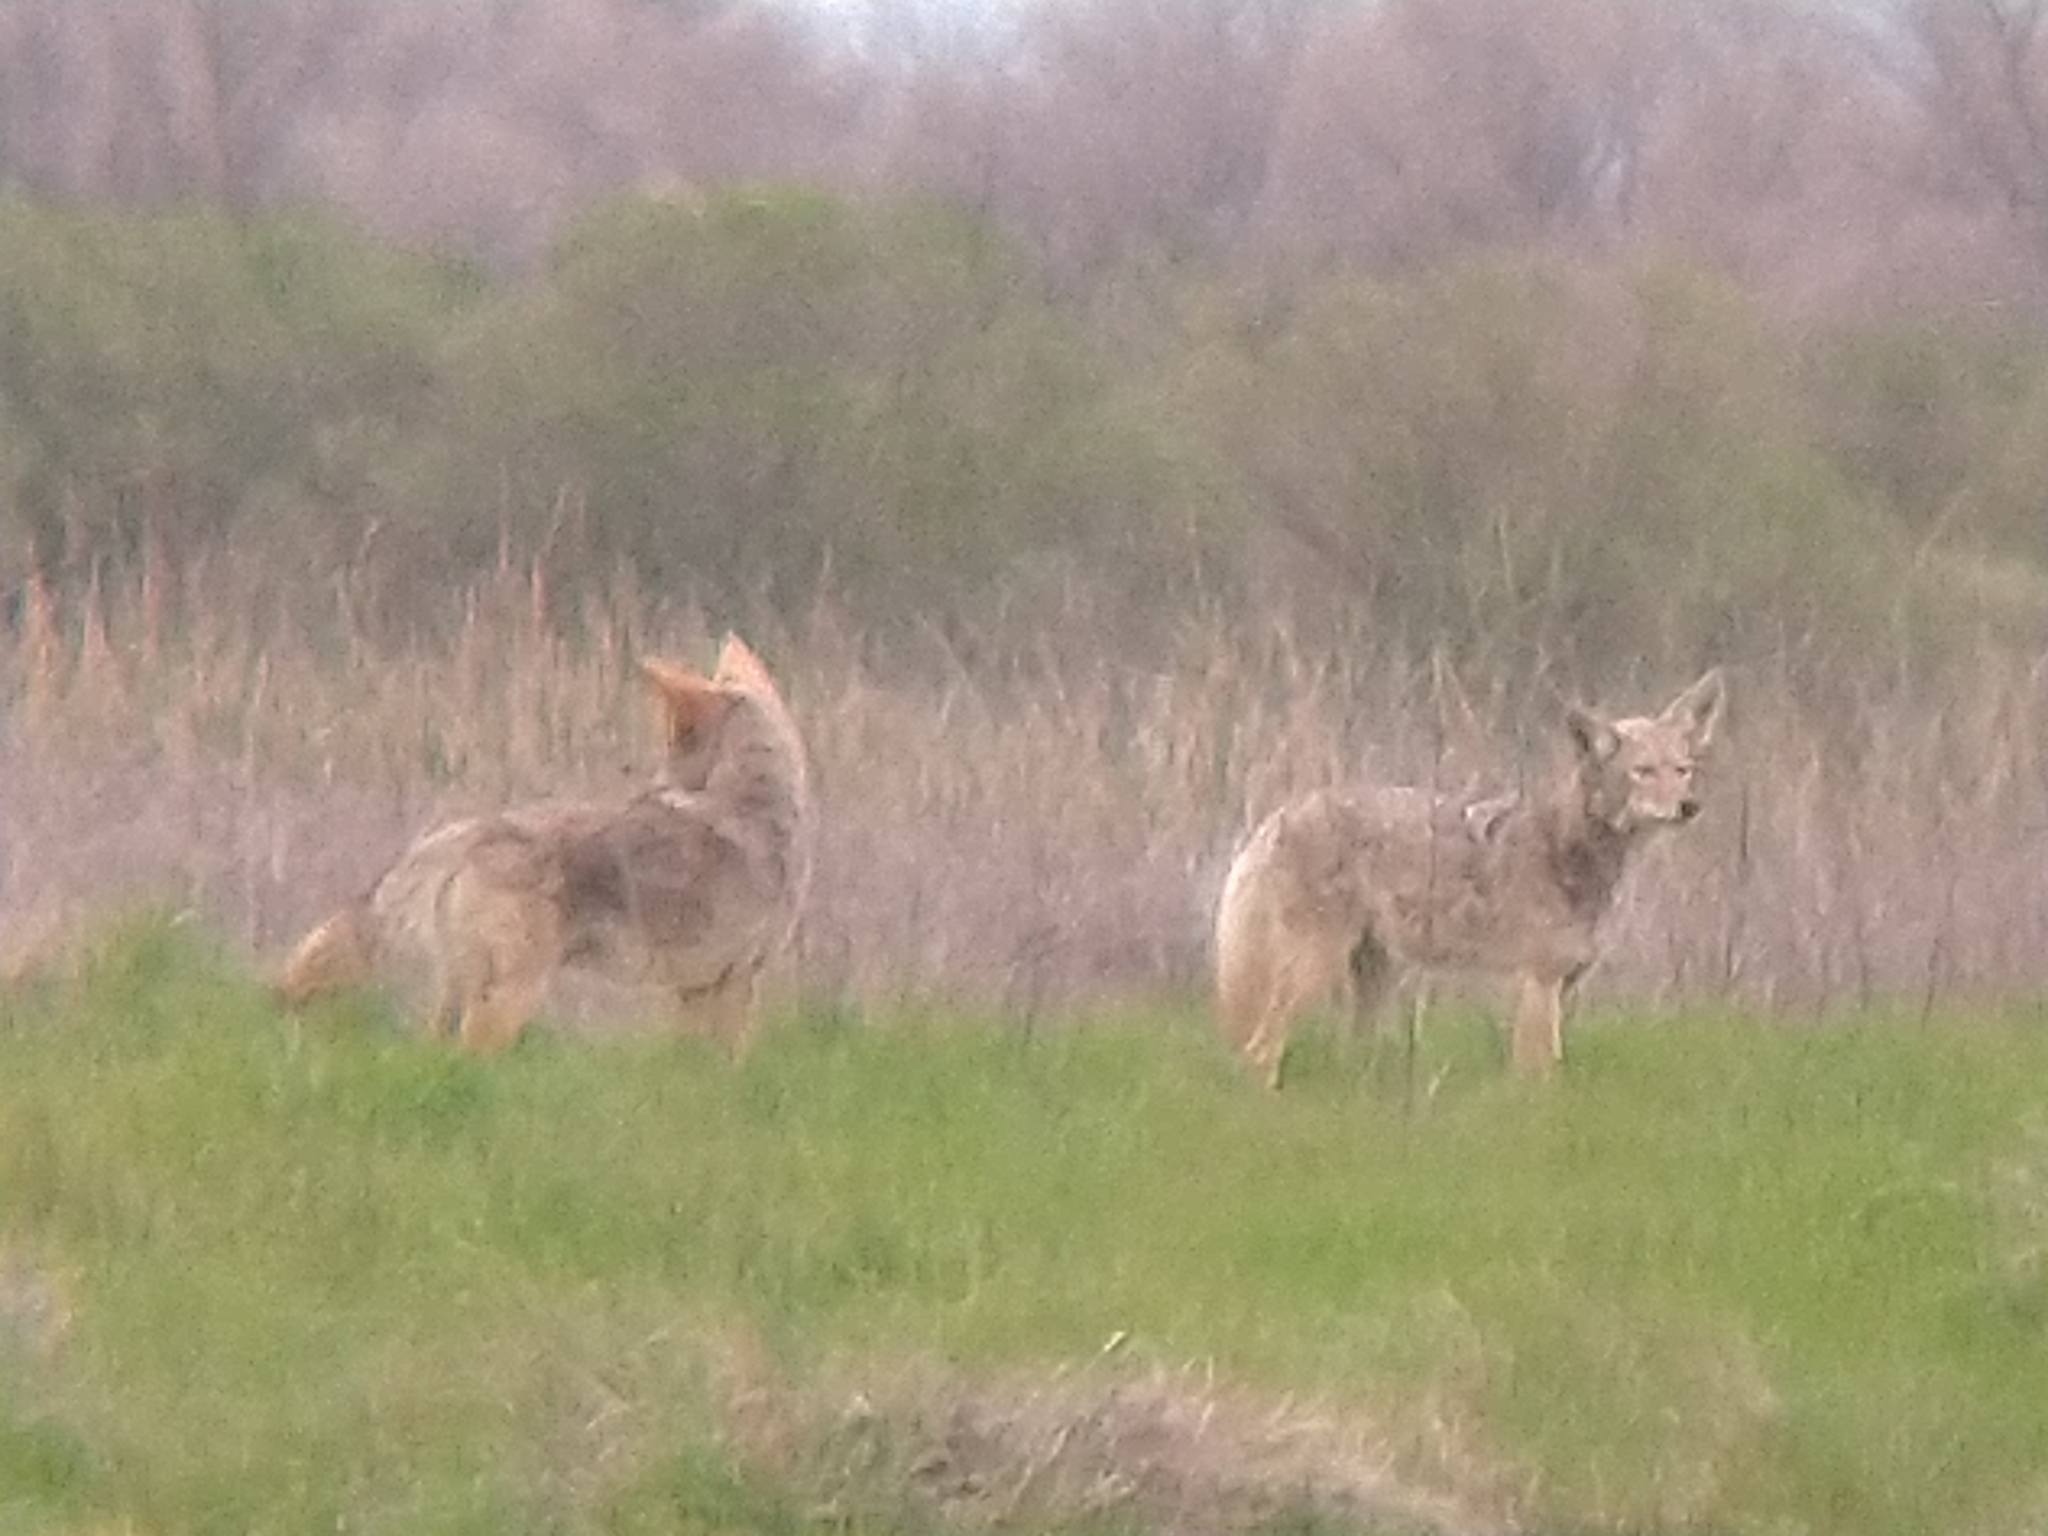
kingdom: Animalia
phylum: Chordata
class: Mammalia
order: Carnivora
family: Canidae
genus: Canis
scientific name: Canis latrans
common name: Coyote
